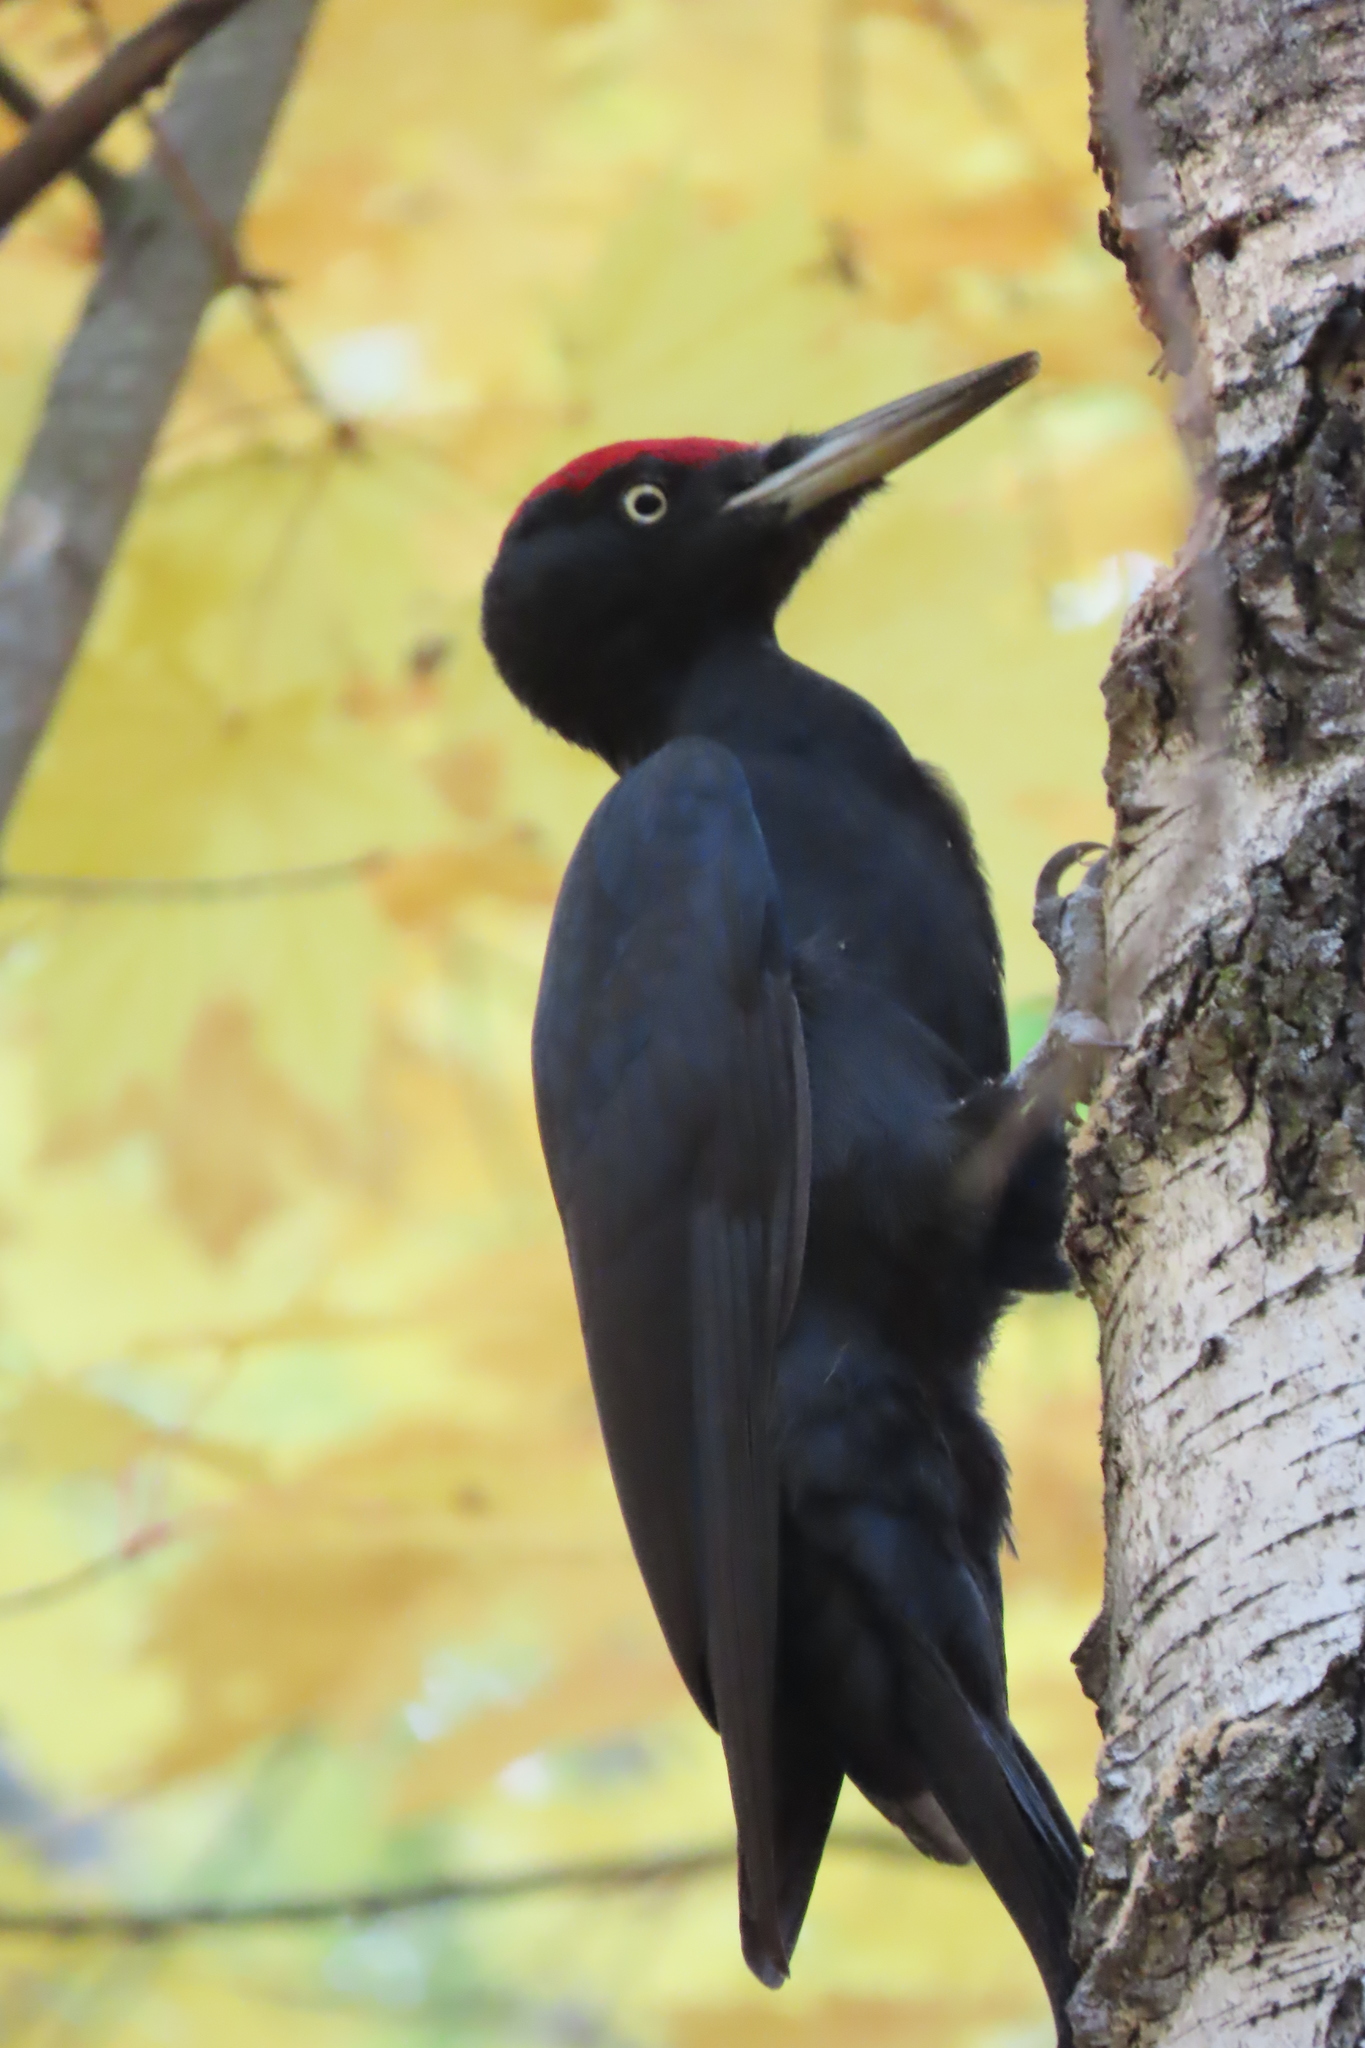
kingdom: Animalia
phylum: Chordata
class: Aves
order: Piciformes
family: Picidae
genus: Dryocopus
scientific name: Dryocopus martius
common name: Black woodpecker
